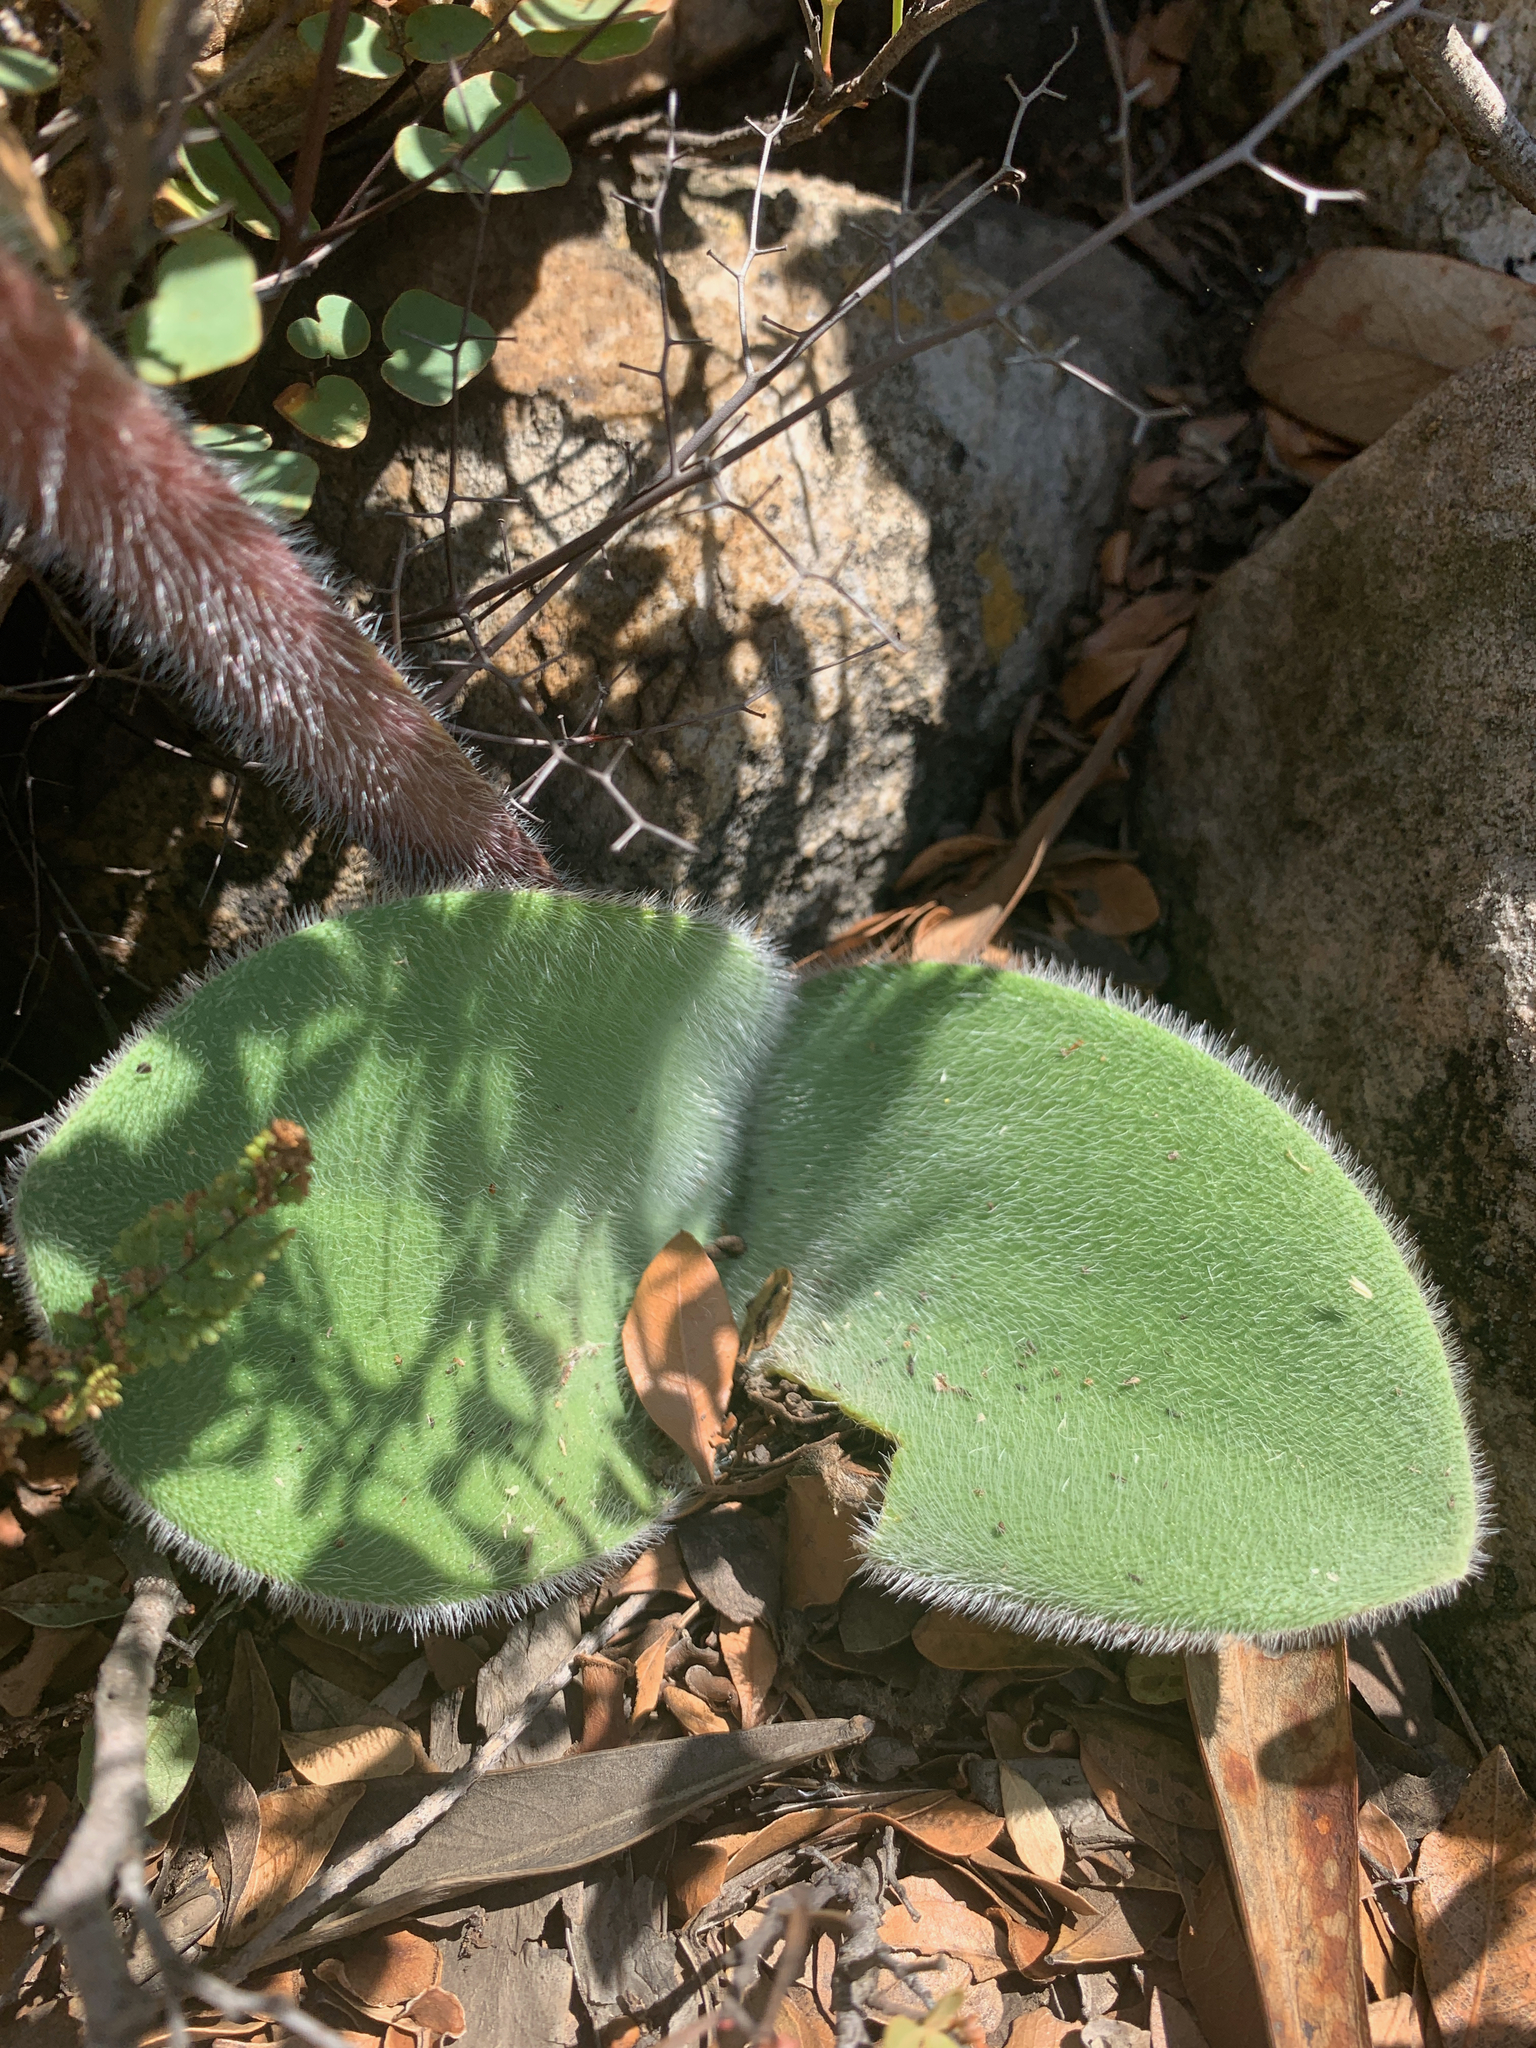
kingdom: Plantae
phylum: Tracheophyta
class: Liliopsida
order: Asparagales
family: Amaryllidaceae
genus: Haemanthus
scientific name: Haemanthus humilis
